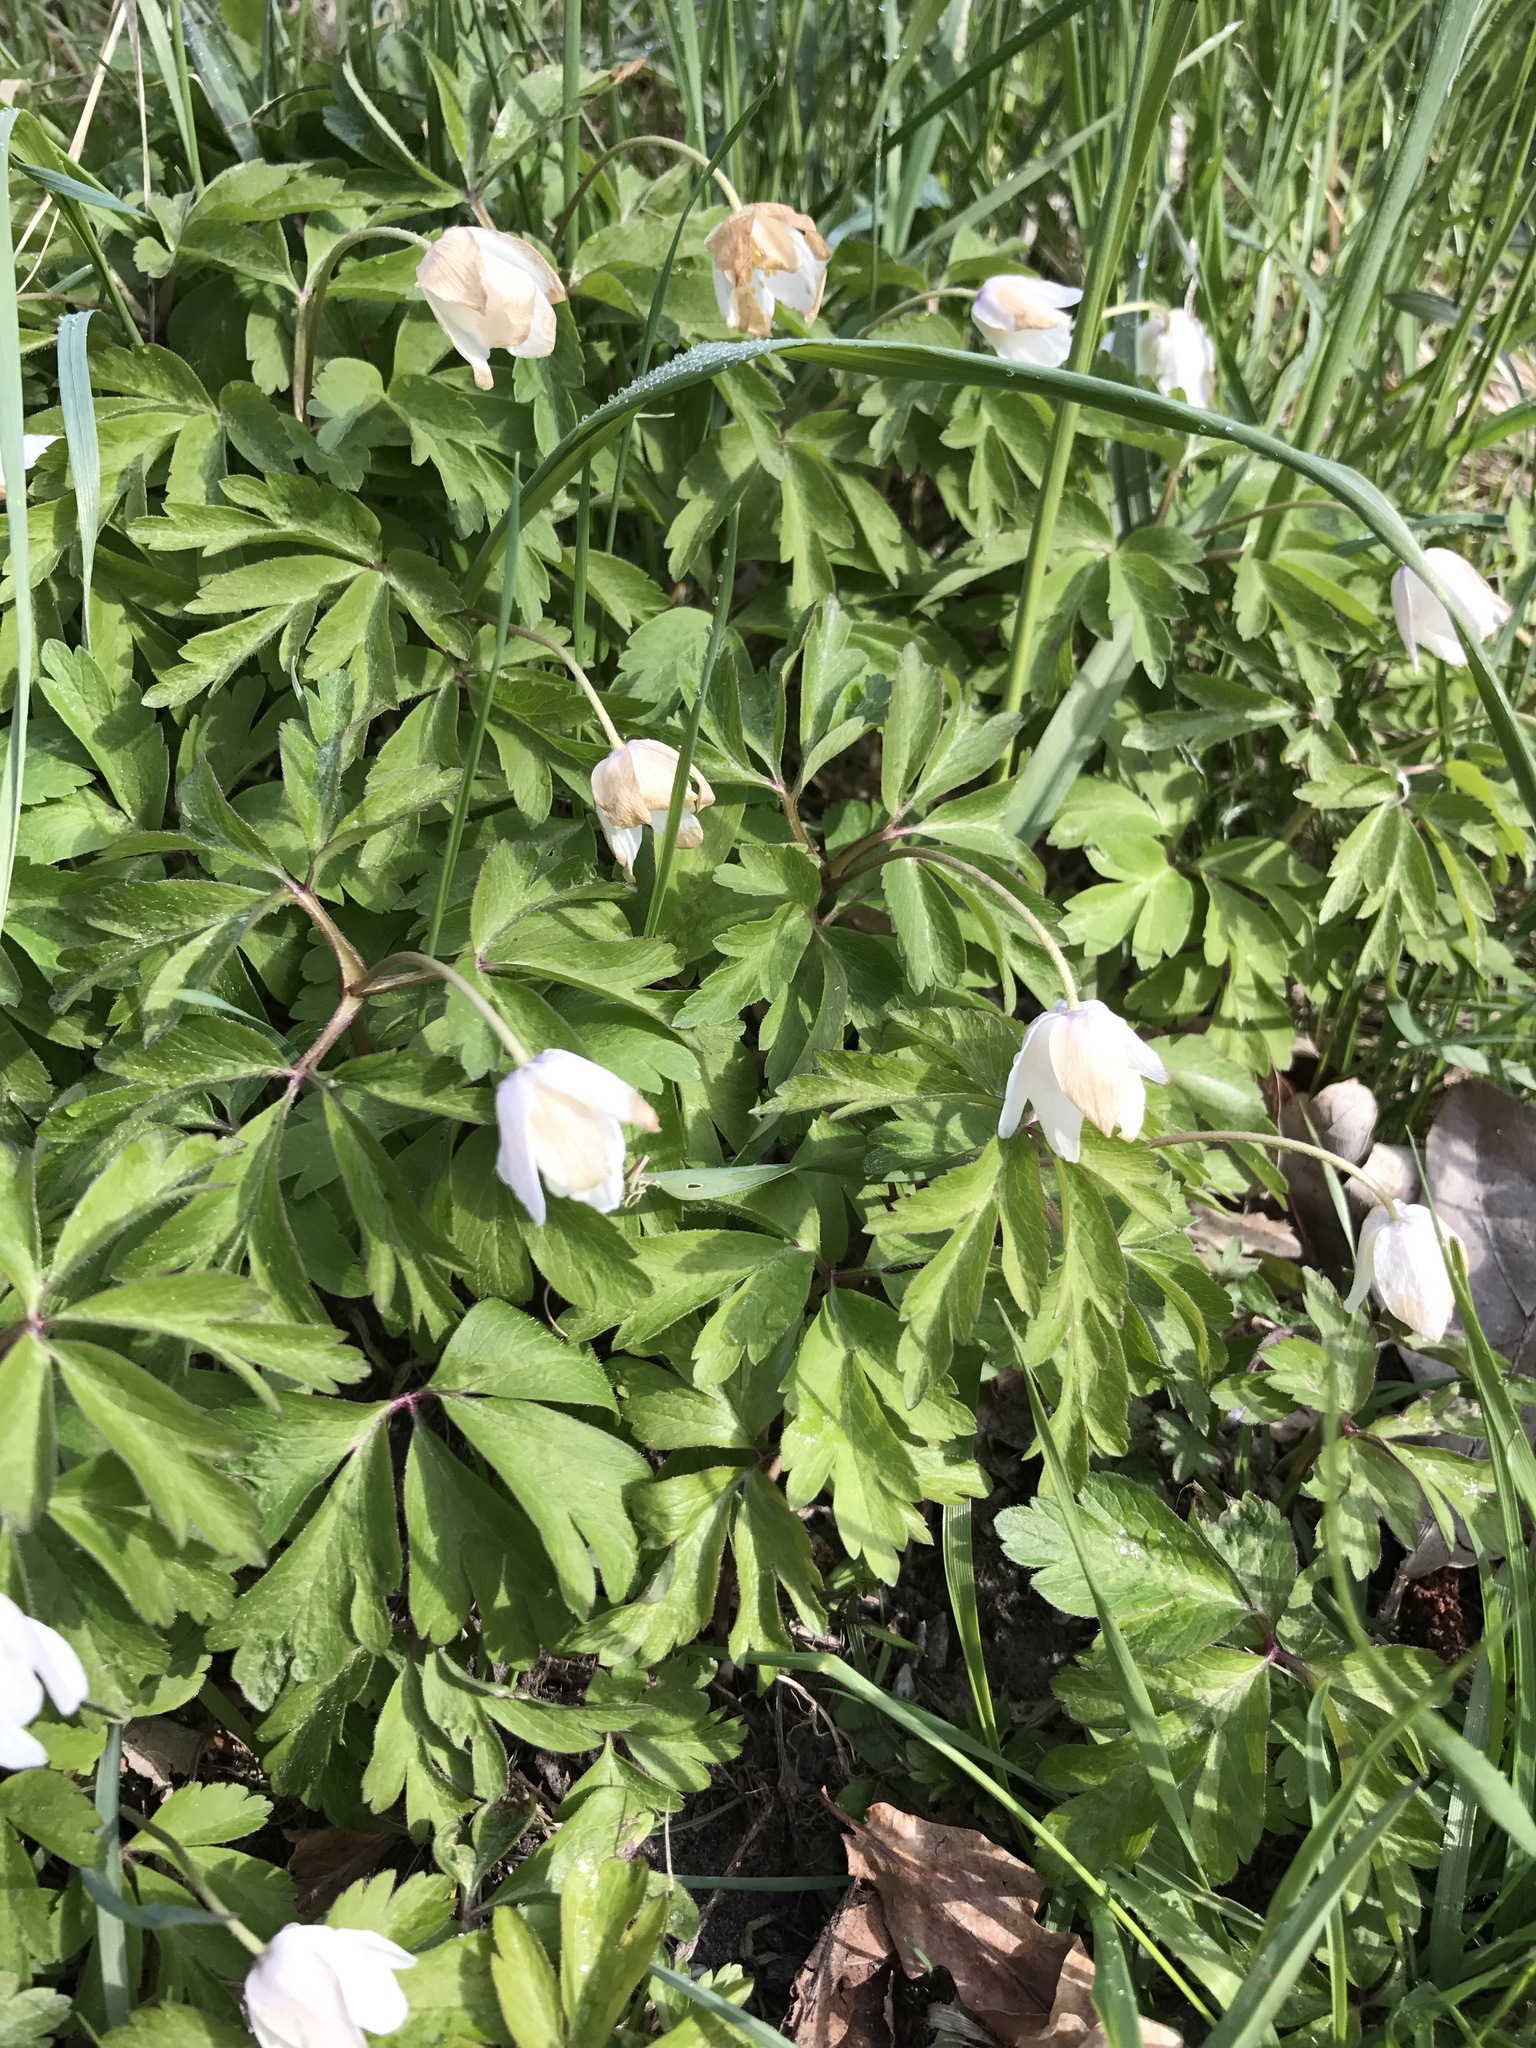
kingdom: Plantae
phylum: Tracheophyta
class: Magnoliopsida
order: Ranunculales
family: Ranunculaceae
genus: Anemone
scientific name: Anemone nemorosa
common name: Wood anemone
